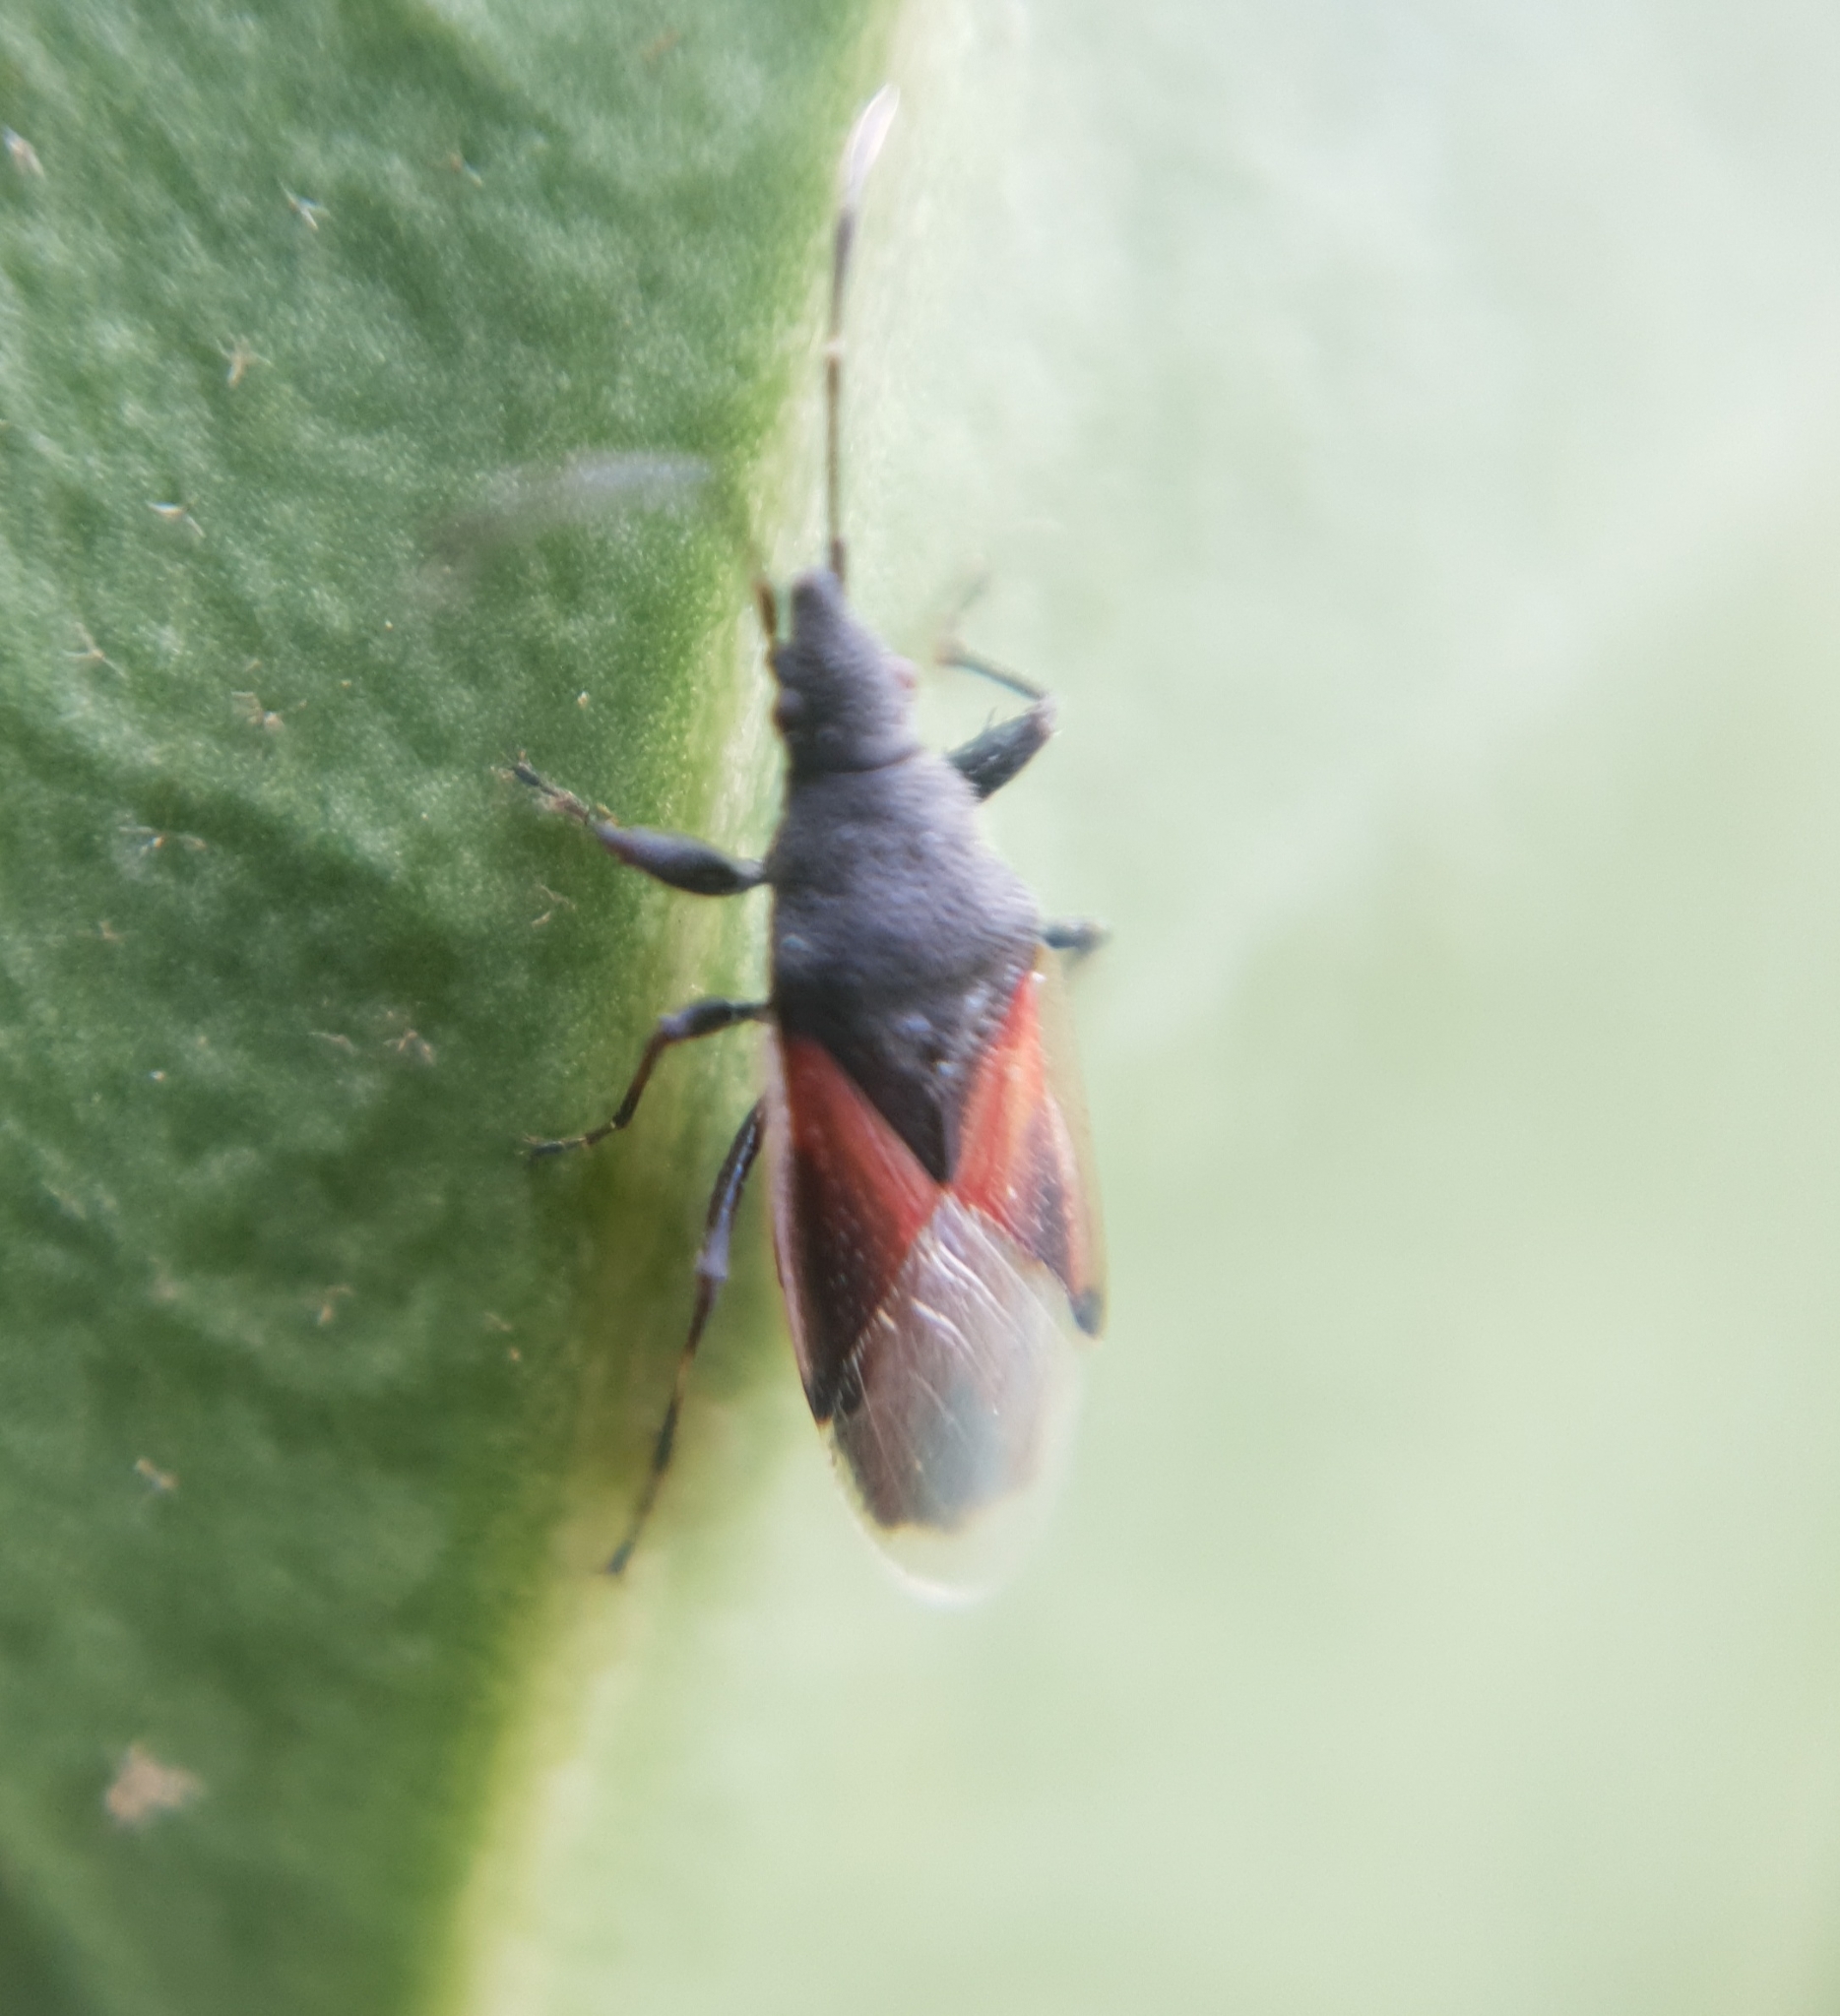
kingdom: Animalia
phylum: Arthropoda
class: Insecta
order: Hemiptera
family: Oxycarenidae
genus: Oxycarenus
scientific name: Oxycarenus lavaterae
